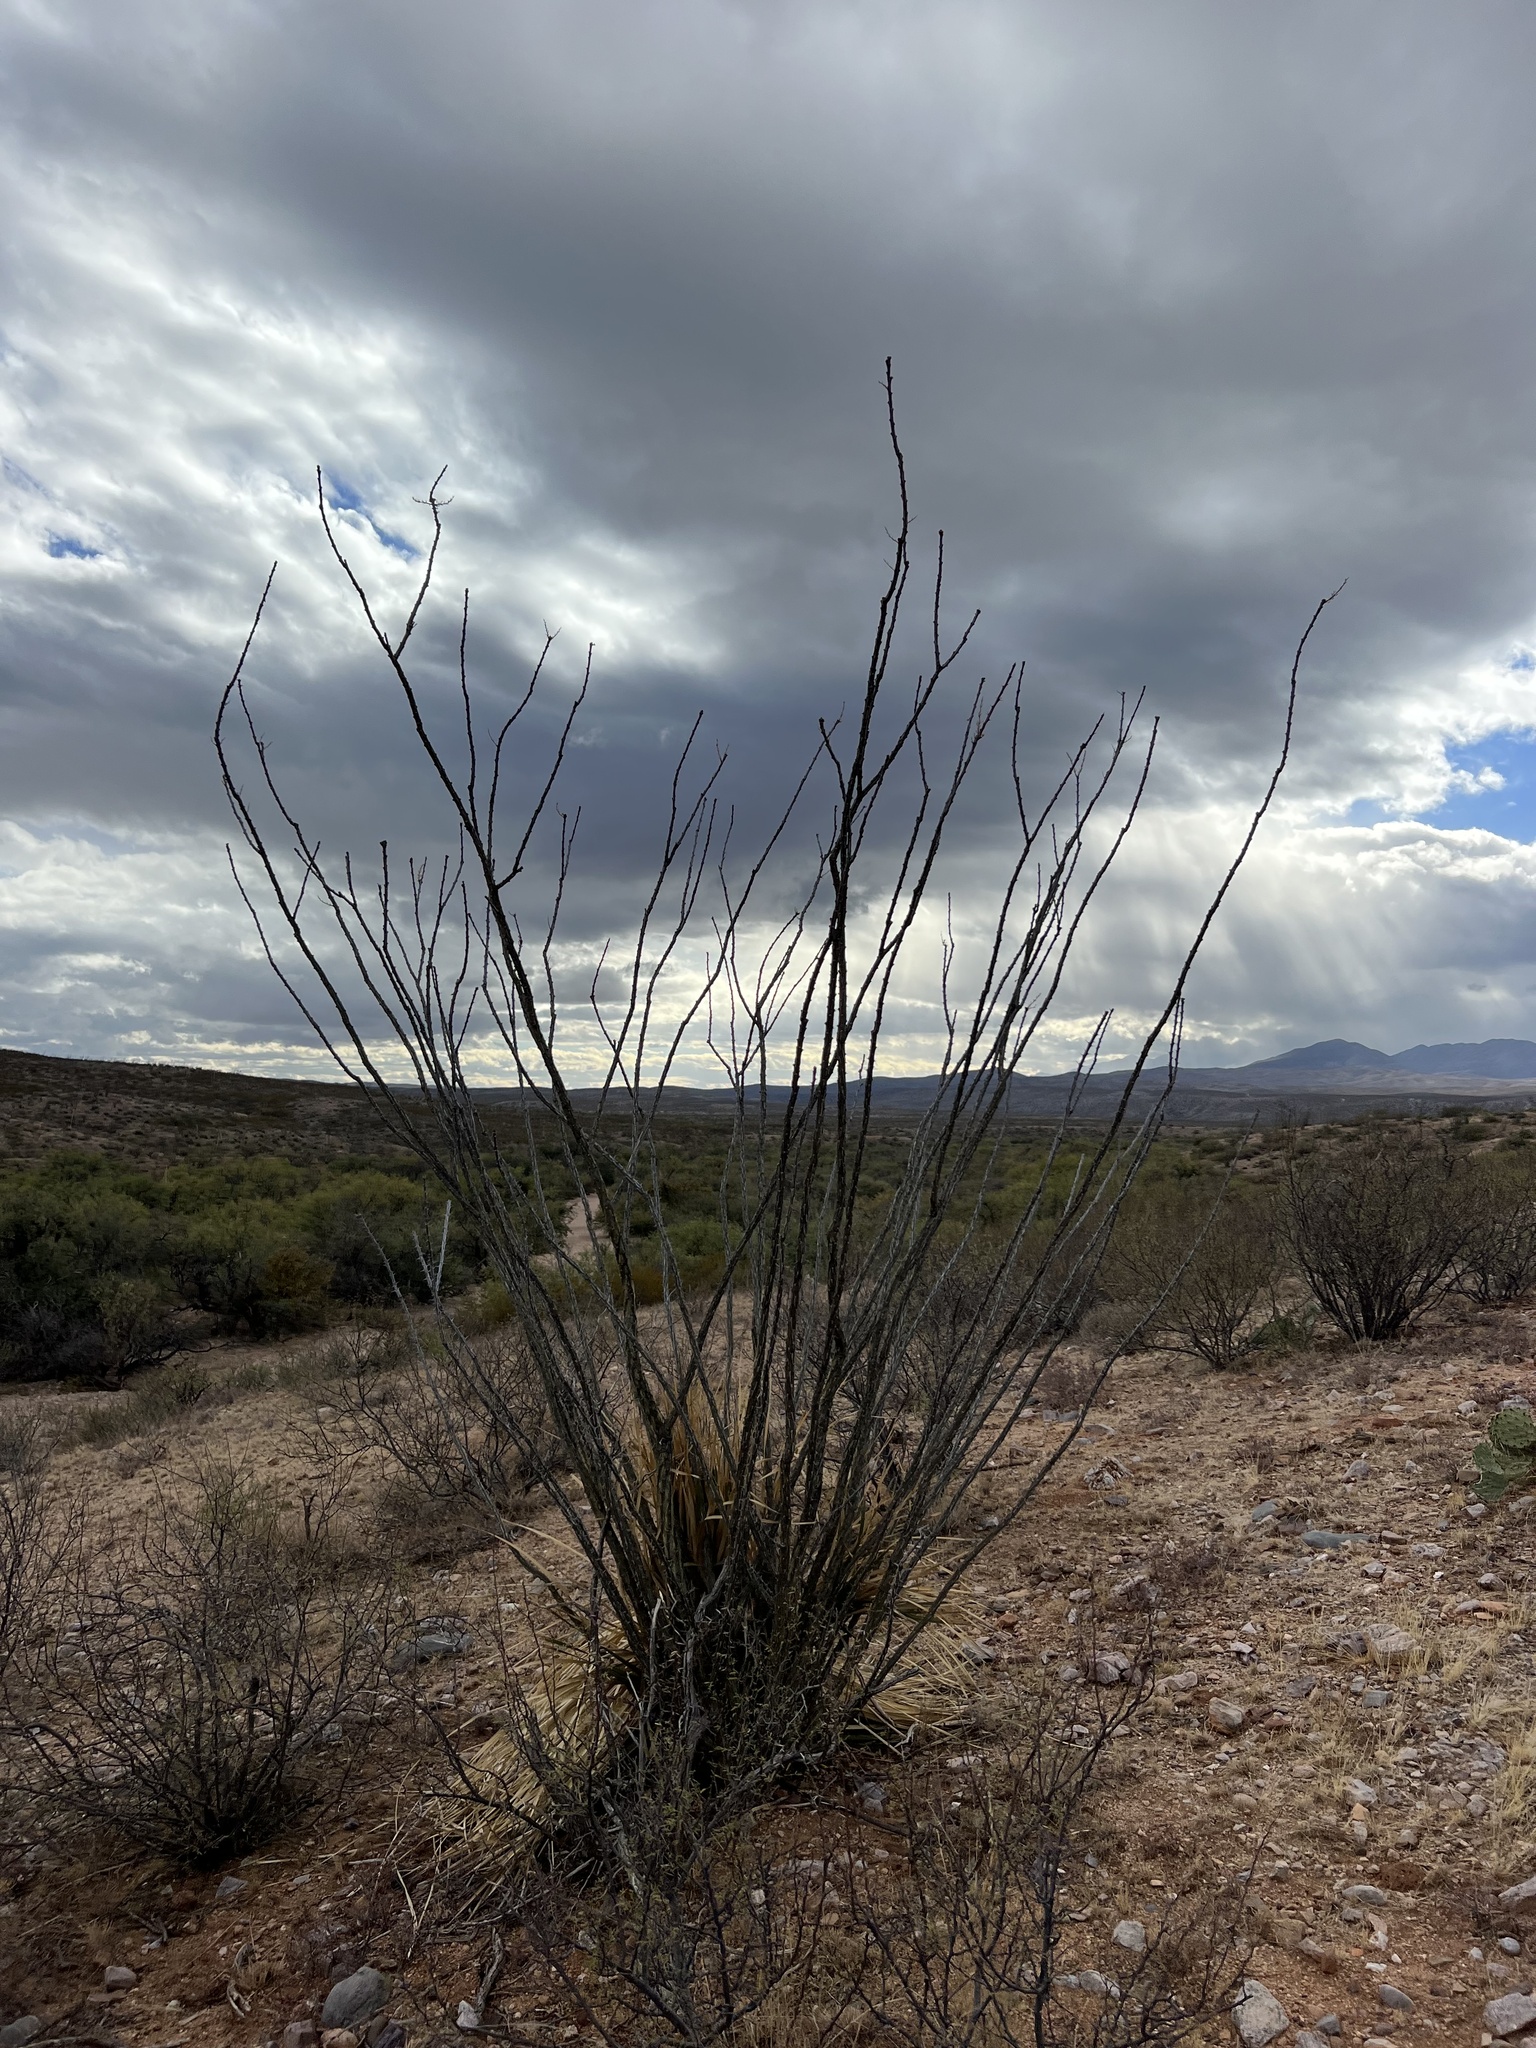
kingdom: Plantae
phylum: Tracheophyta
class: Magnoliopsida
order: Ericales
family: Fouquieriaceae
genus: Fouquieria
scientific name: Fouquieria splendens
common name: Vine-cactus
